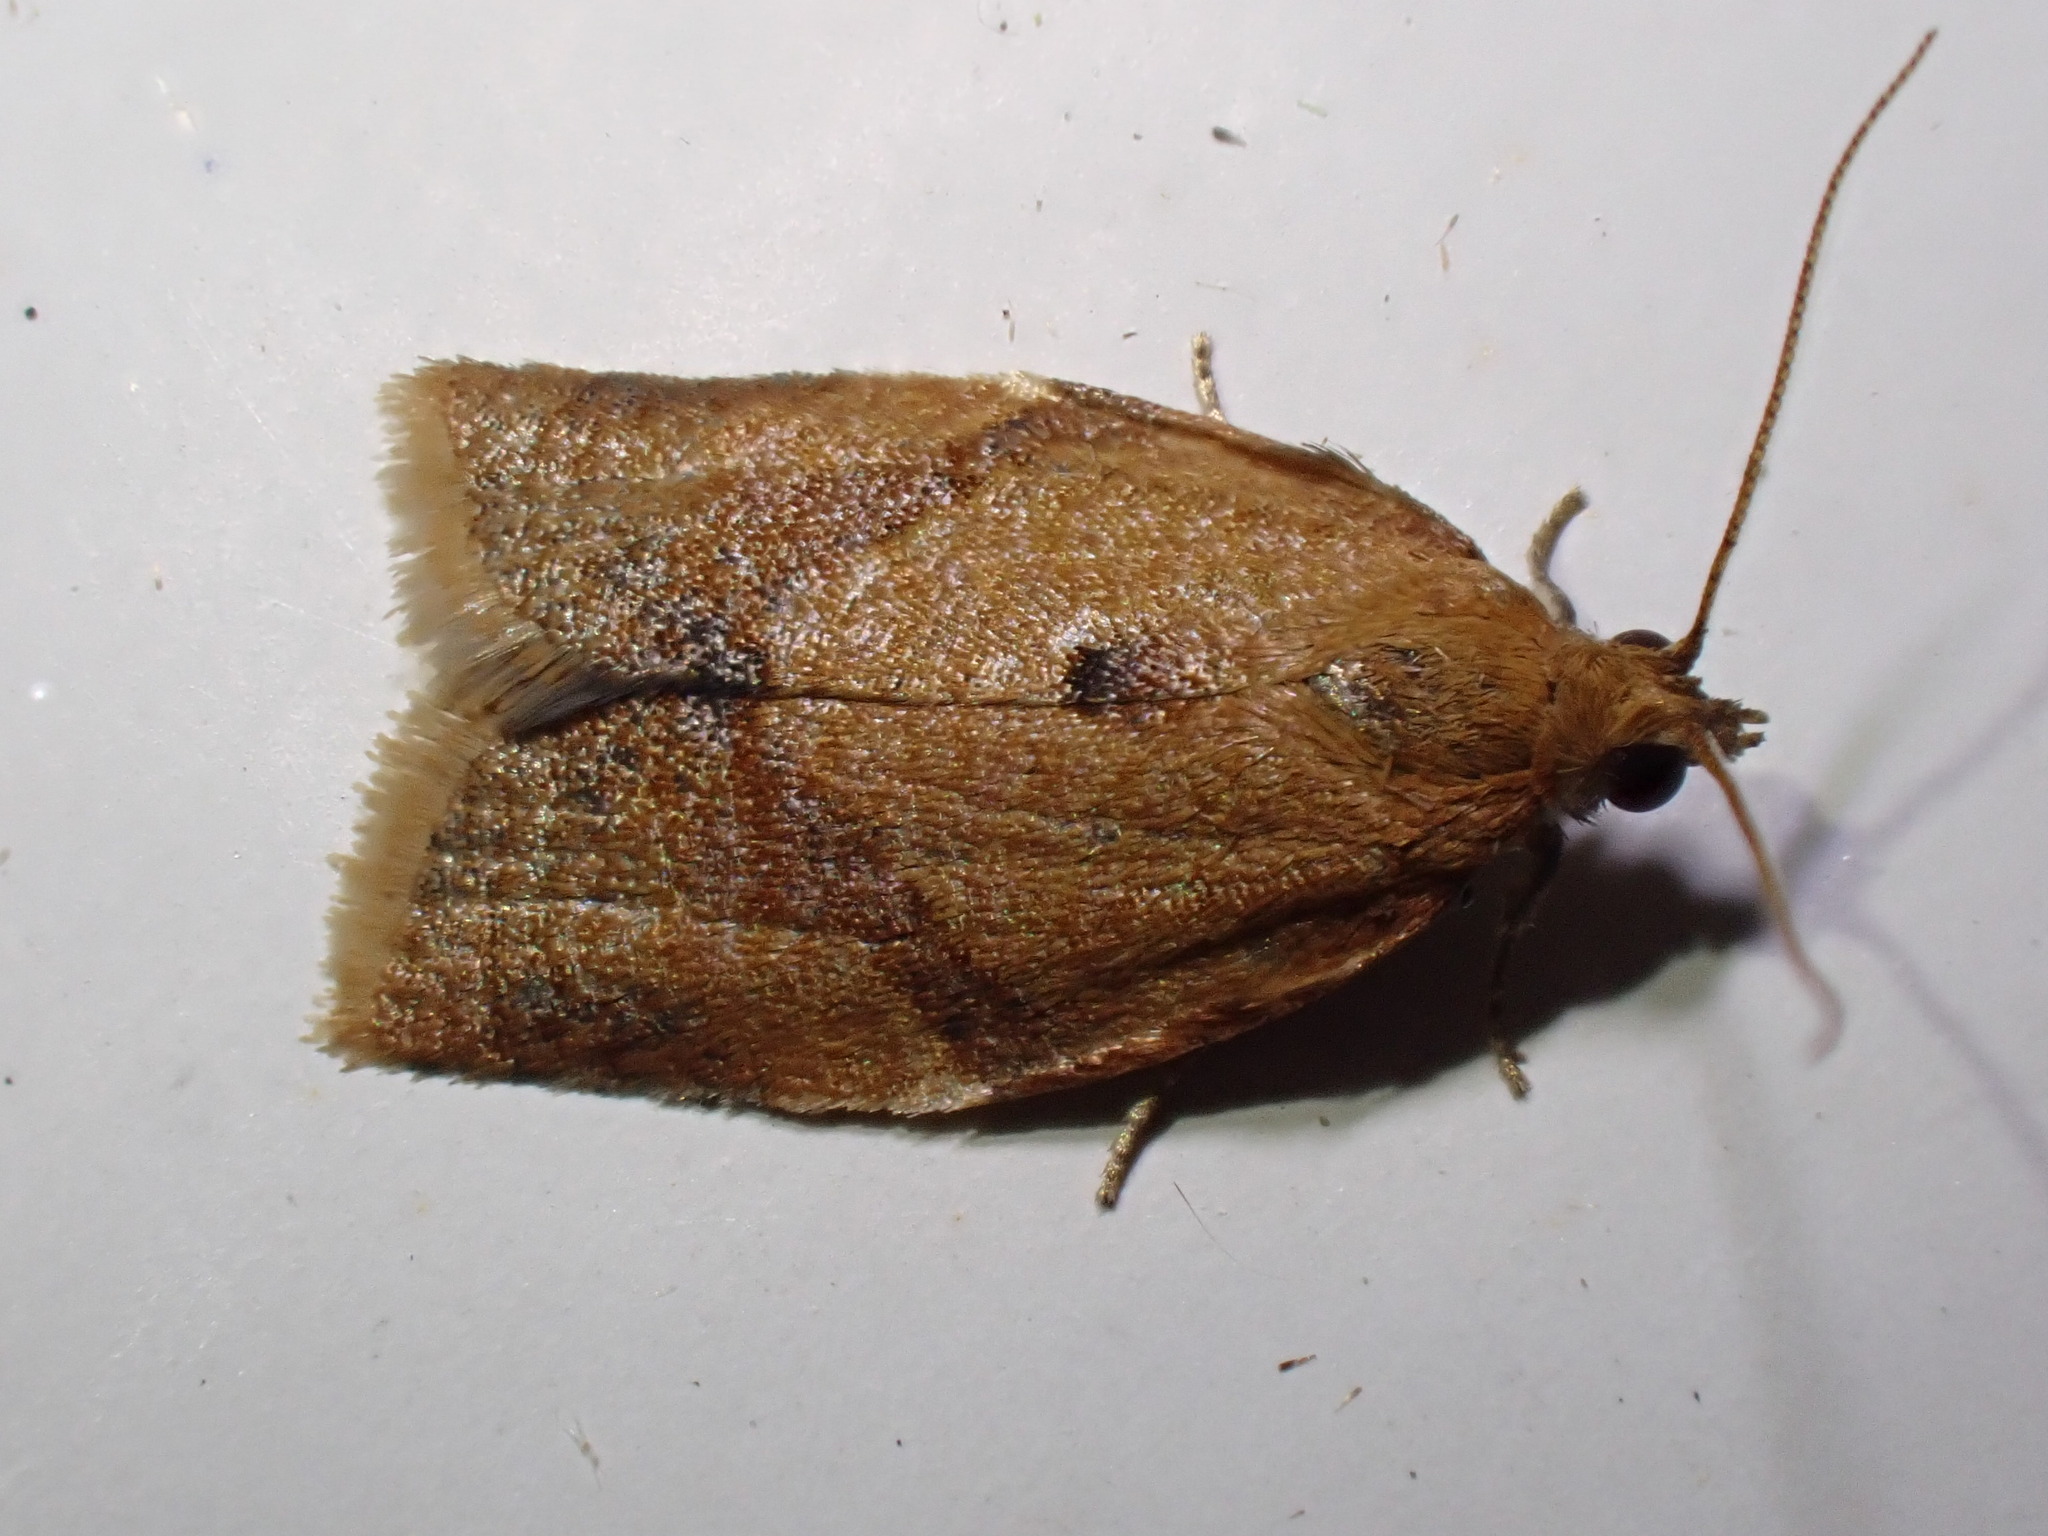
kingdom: Animalia
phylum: Arthropoda
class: Insecta
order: Lepidoptera
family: Tortricidae
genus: Clepsis
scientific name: Clepsis consimilana
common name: Privet tortrix
